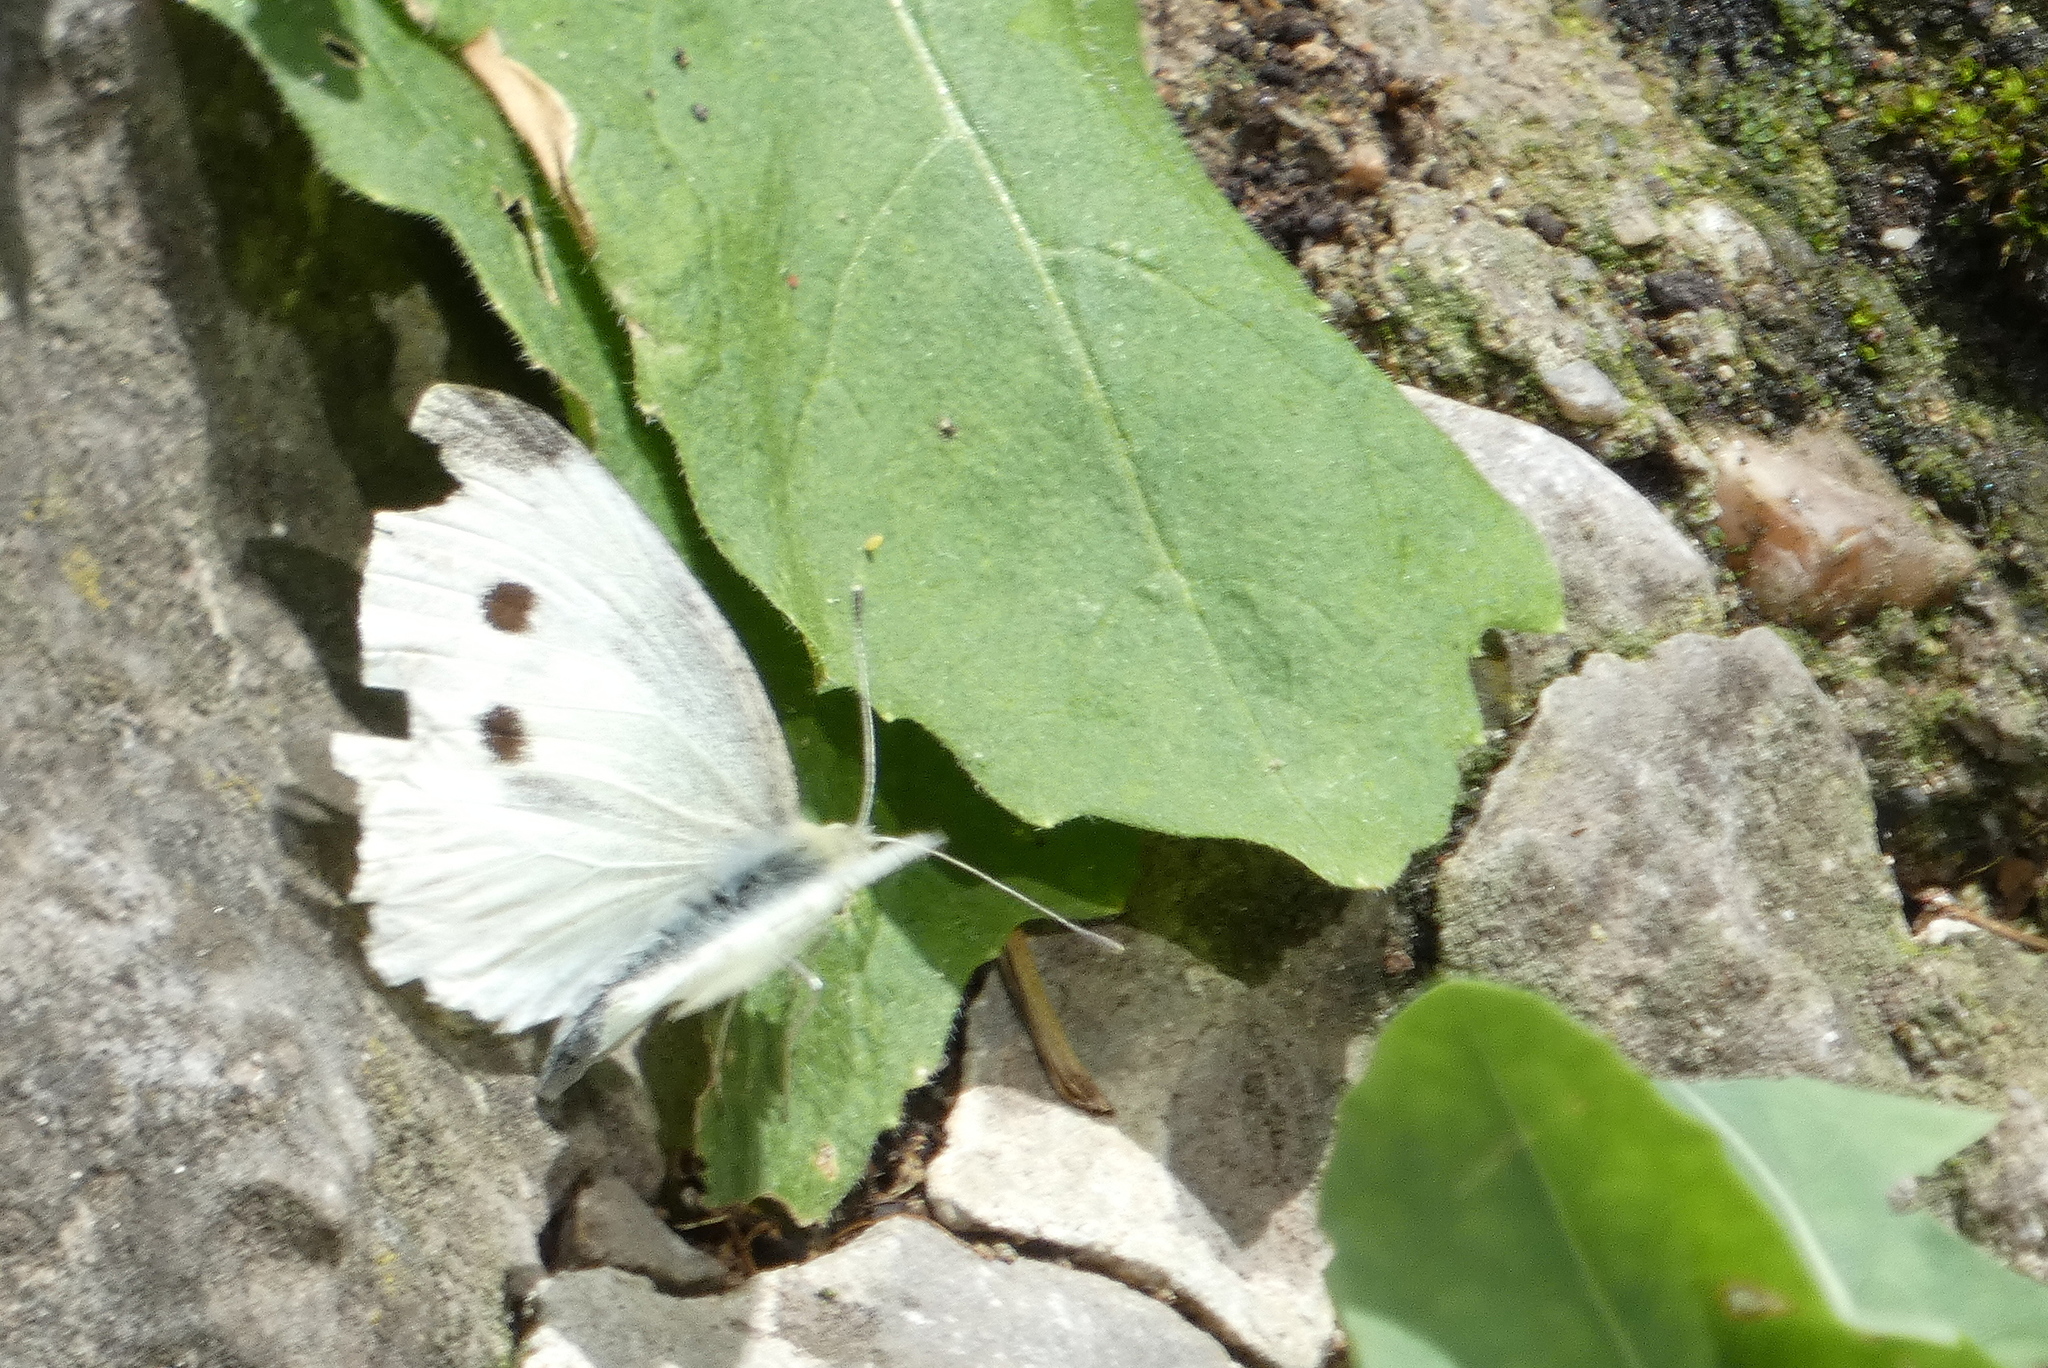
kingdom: Animalia
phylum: Arthropoda
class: Insecta
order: Lepidoptera
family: Pieridae
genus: Pieris
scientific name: Pieris rapae
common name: Small white
